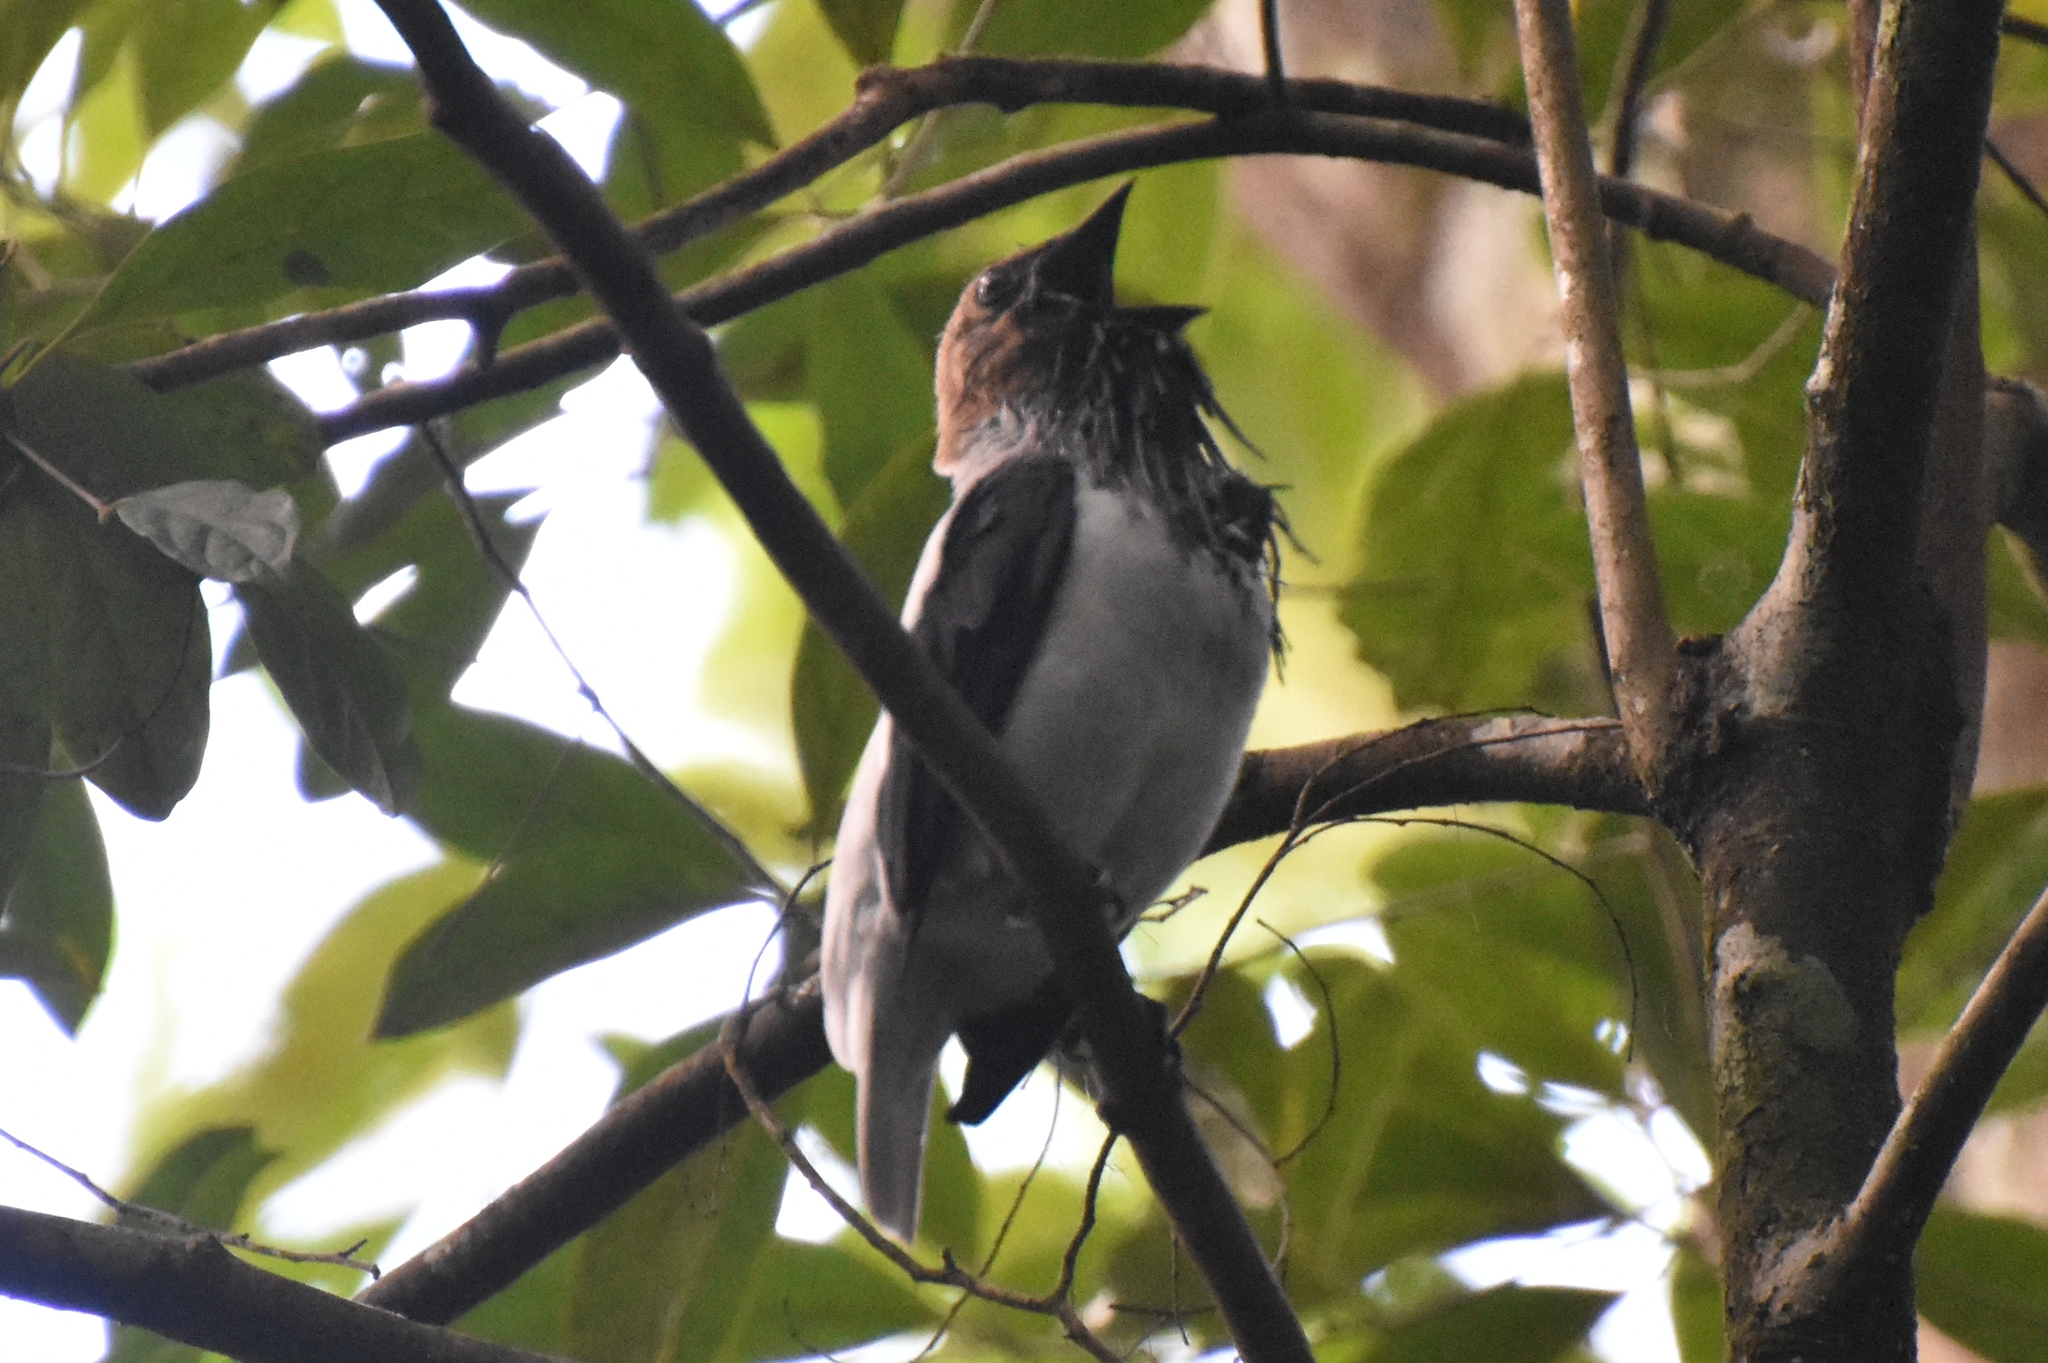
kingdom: Animalia
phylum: Chordata
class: Aves
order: Passeriformes
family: Cotingidae
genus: Procnias
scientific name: Procnias averano
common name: Bearded bellbird
